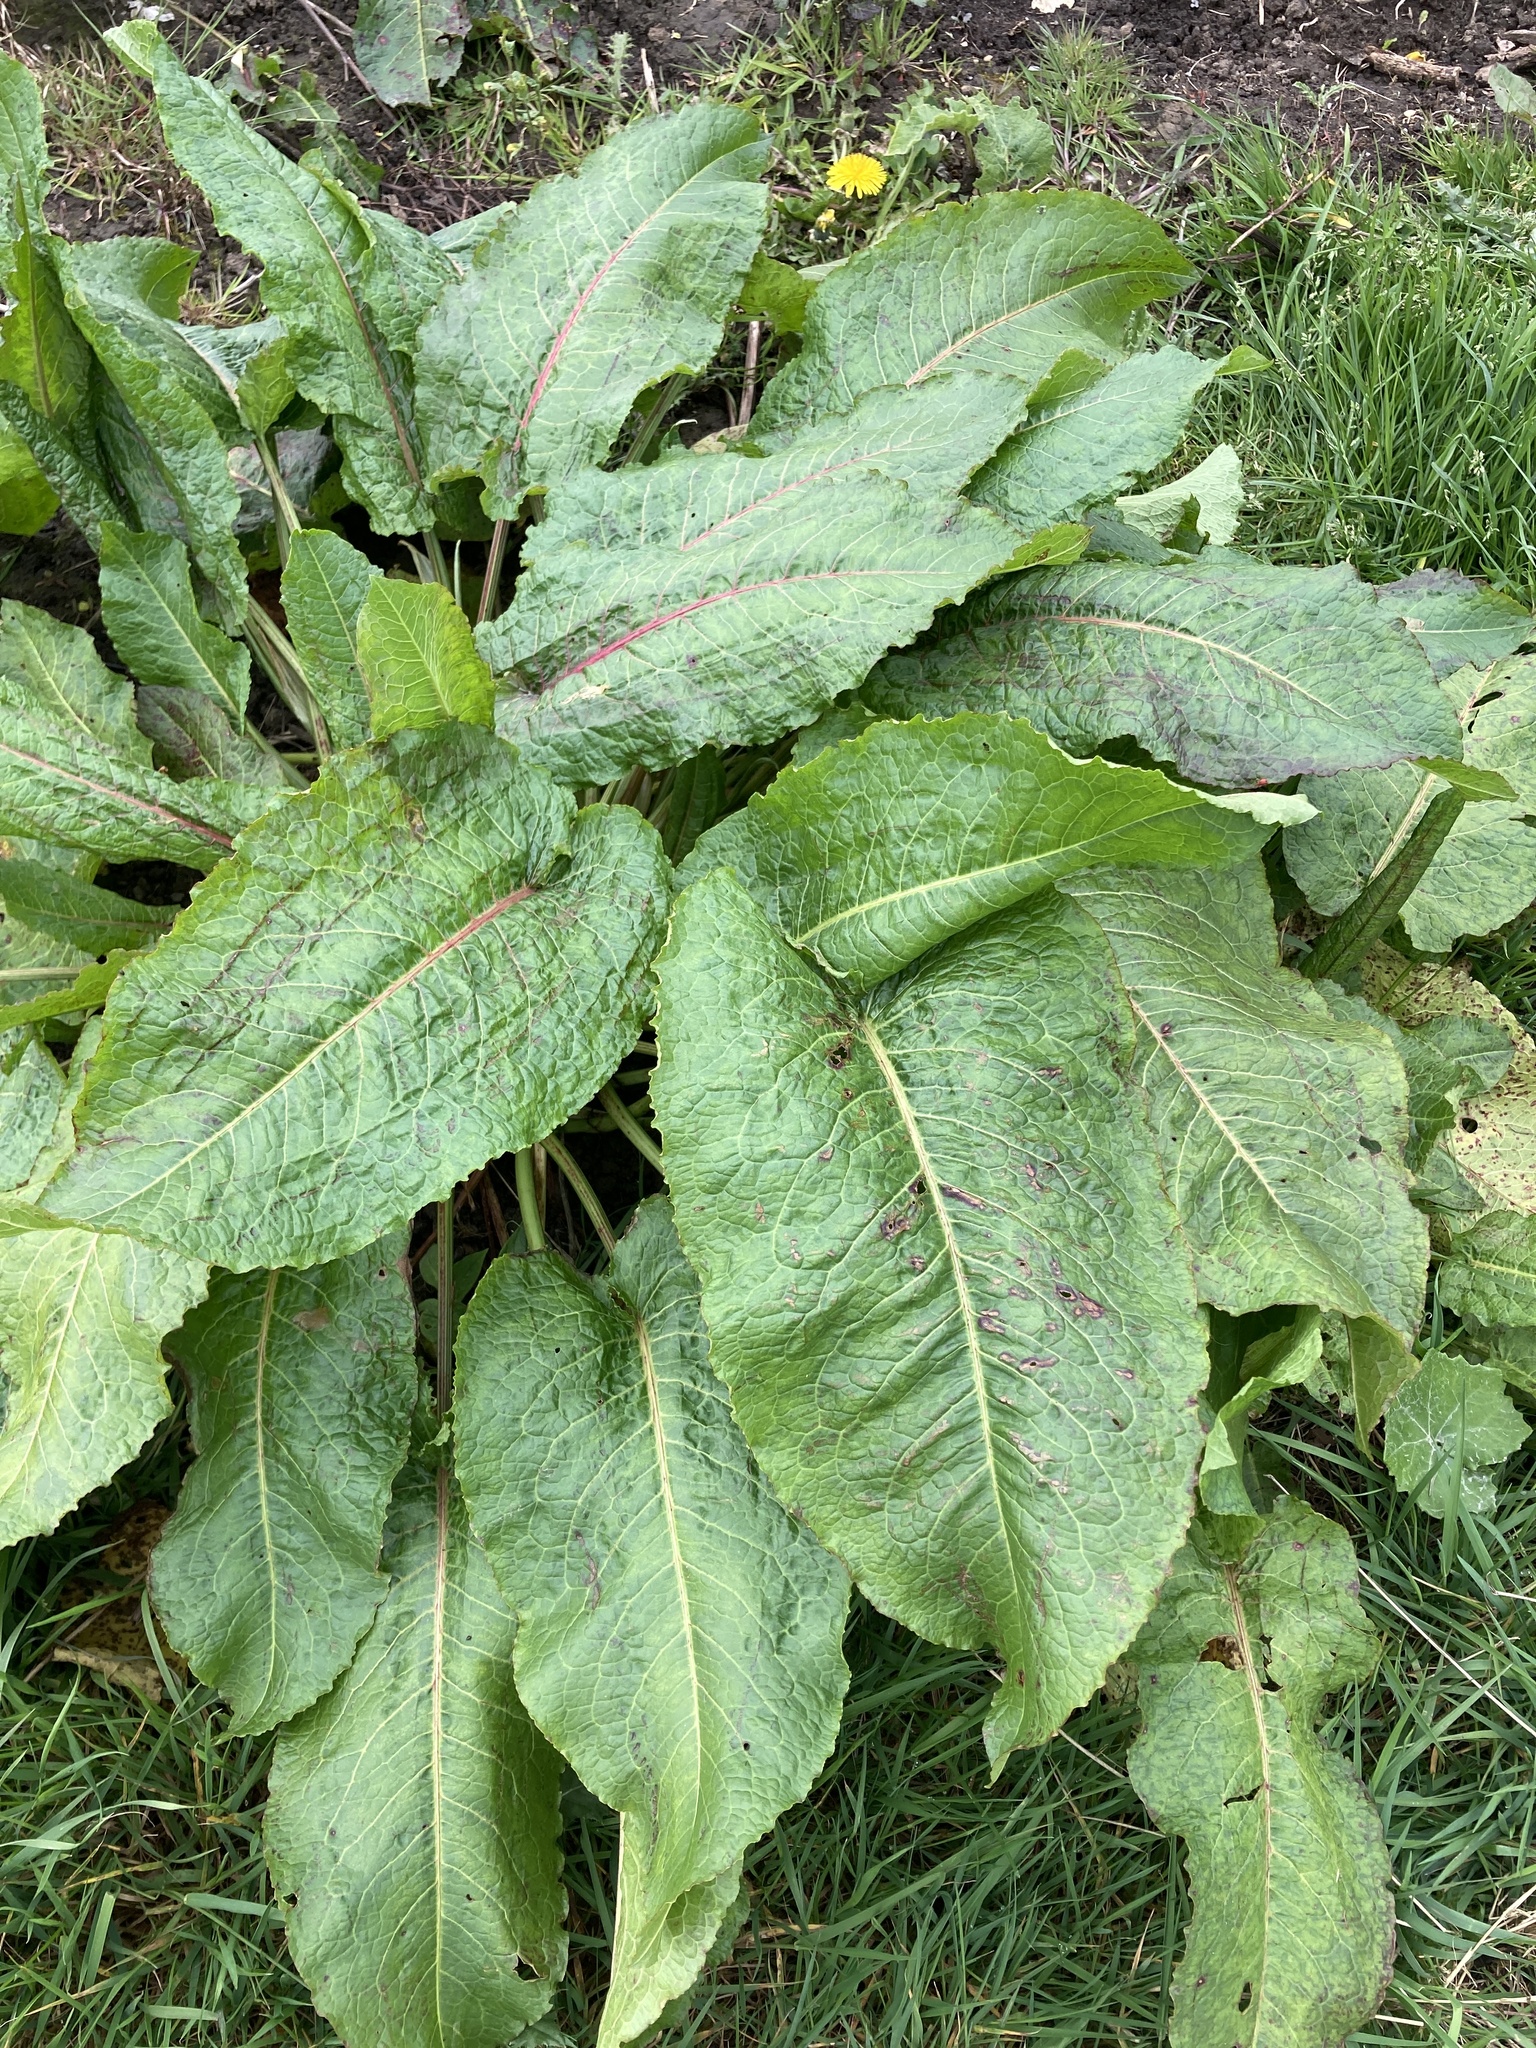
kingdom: Plantae
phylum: Tracheophyta
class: Magnoliopsida
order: Caryophyllales
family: Polygonaceae
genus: Rumex
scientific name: Rumex obtusifolius
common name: Bitter dock
